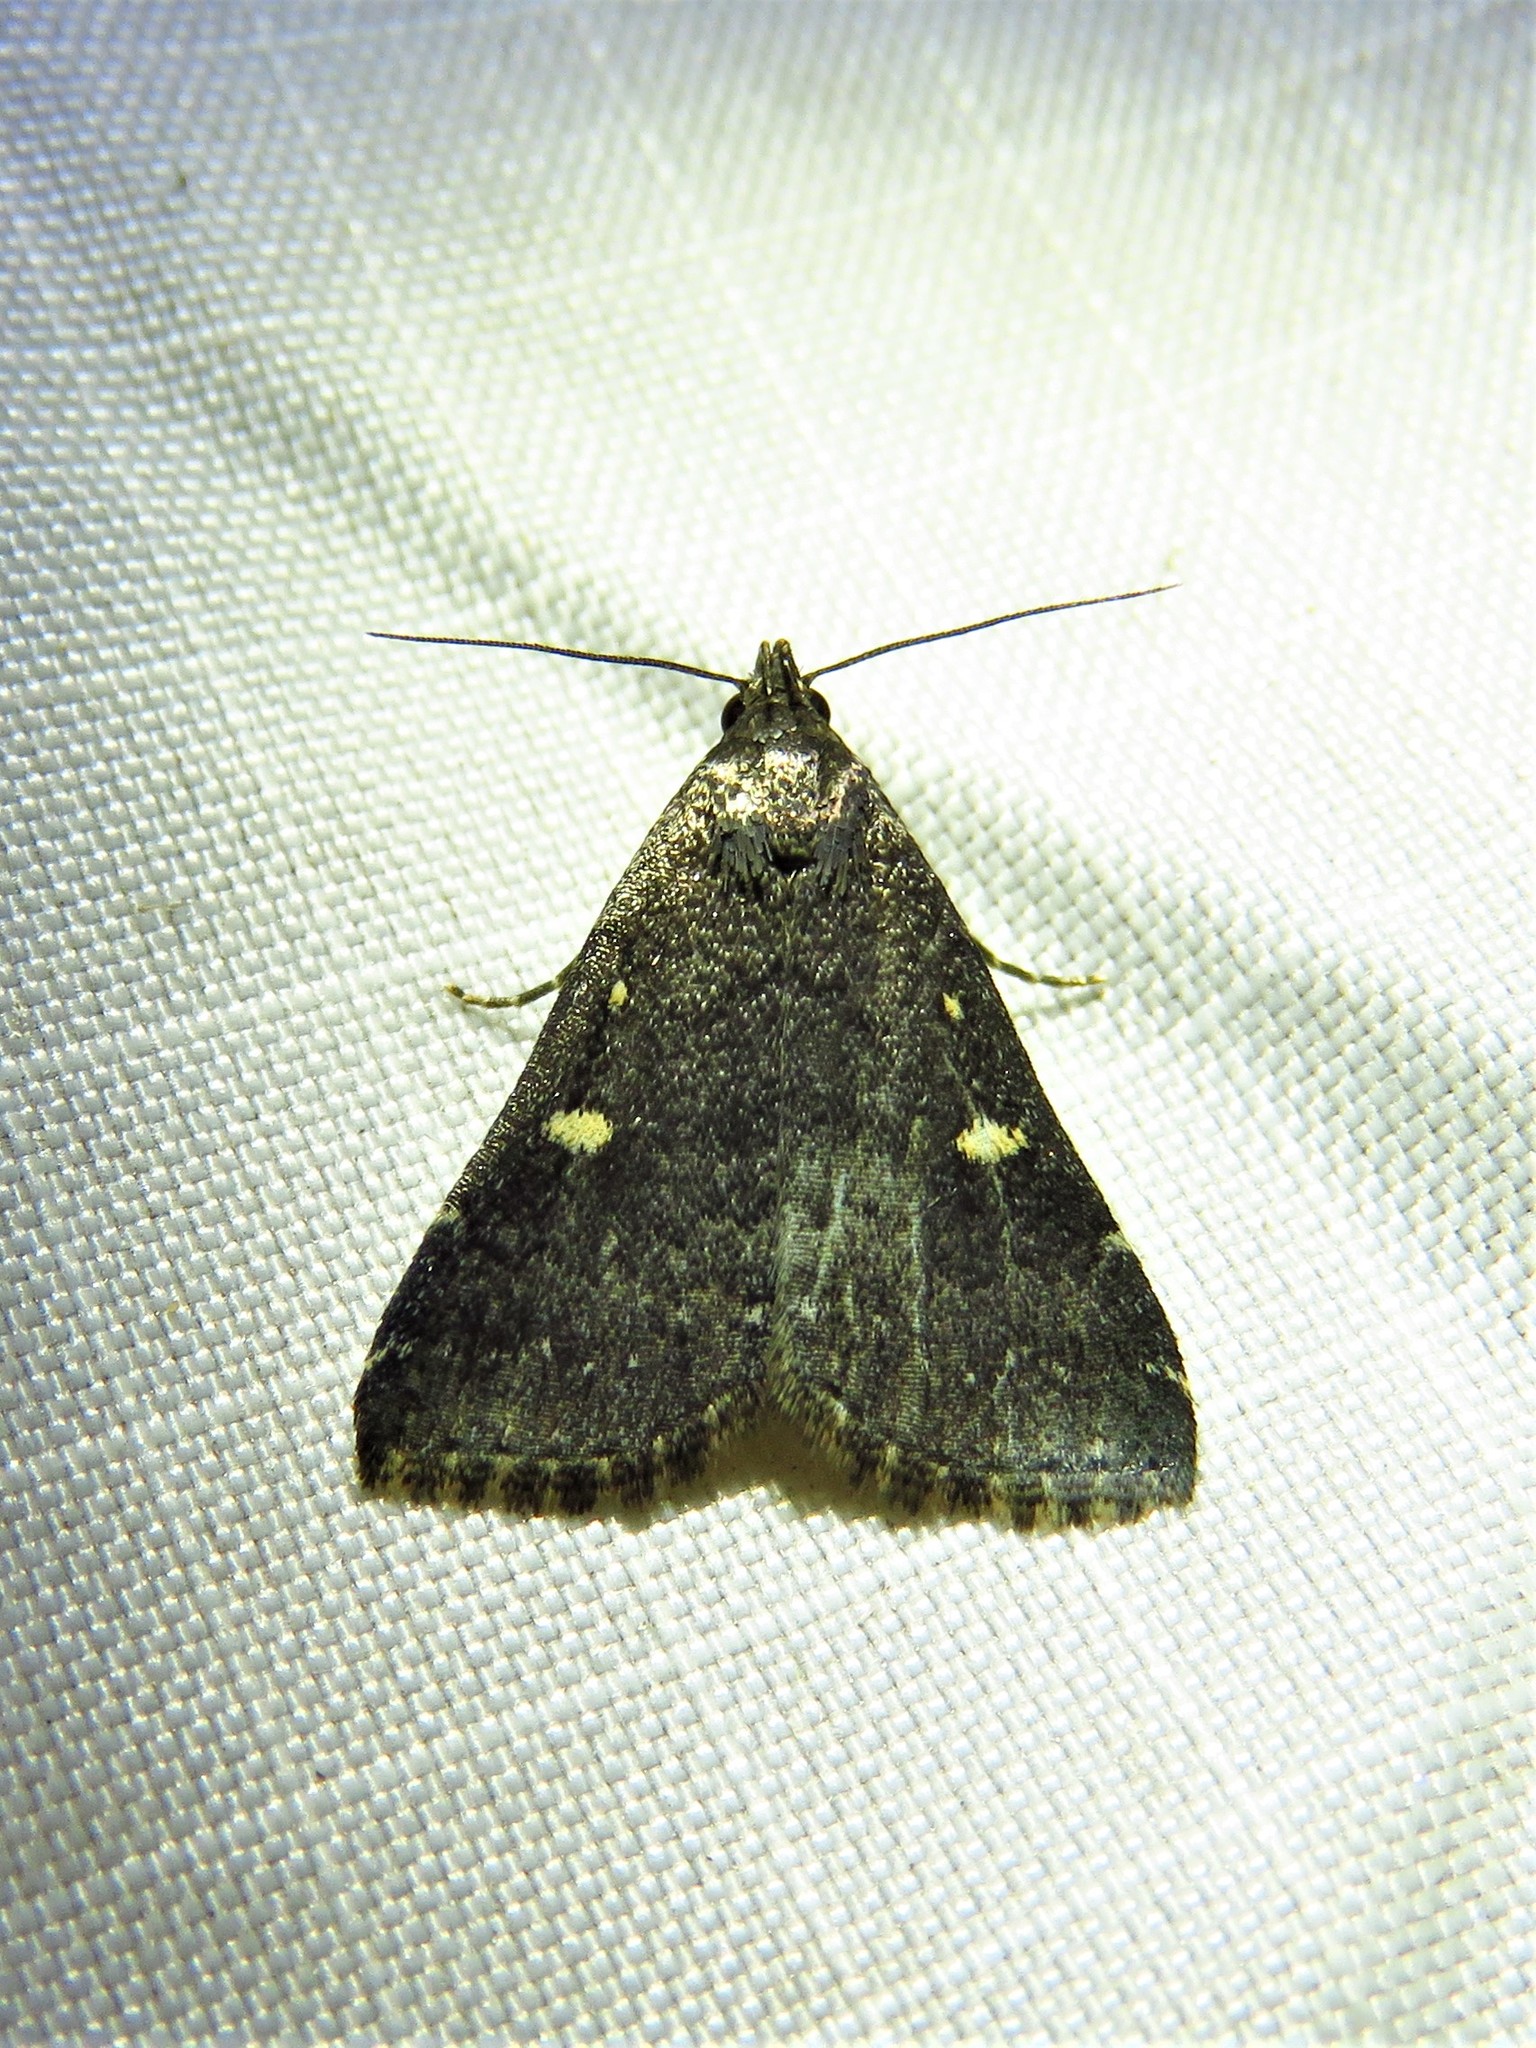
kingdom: Animalia
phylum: Arthropoda
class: Insecta
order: Lepidoptera
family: Erebidae
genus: Tetanolita
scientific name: Tetanolita mynesalis
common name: Smoky tetanolita moth
